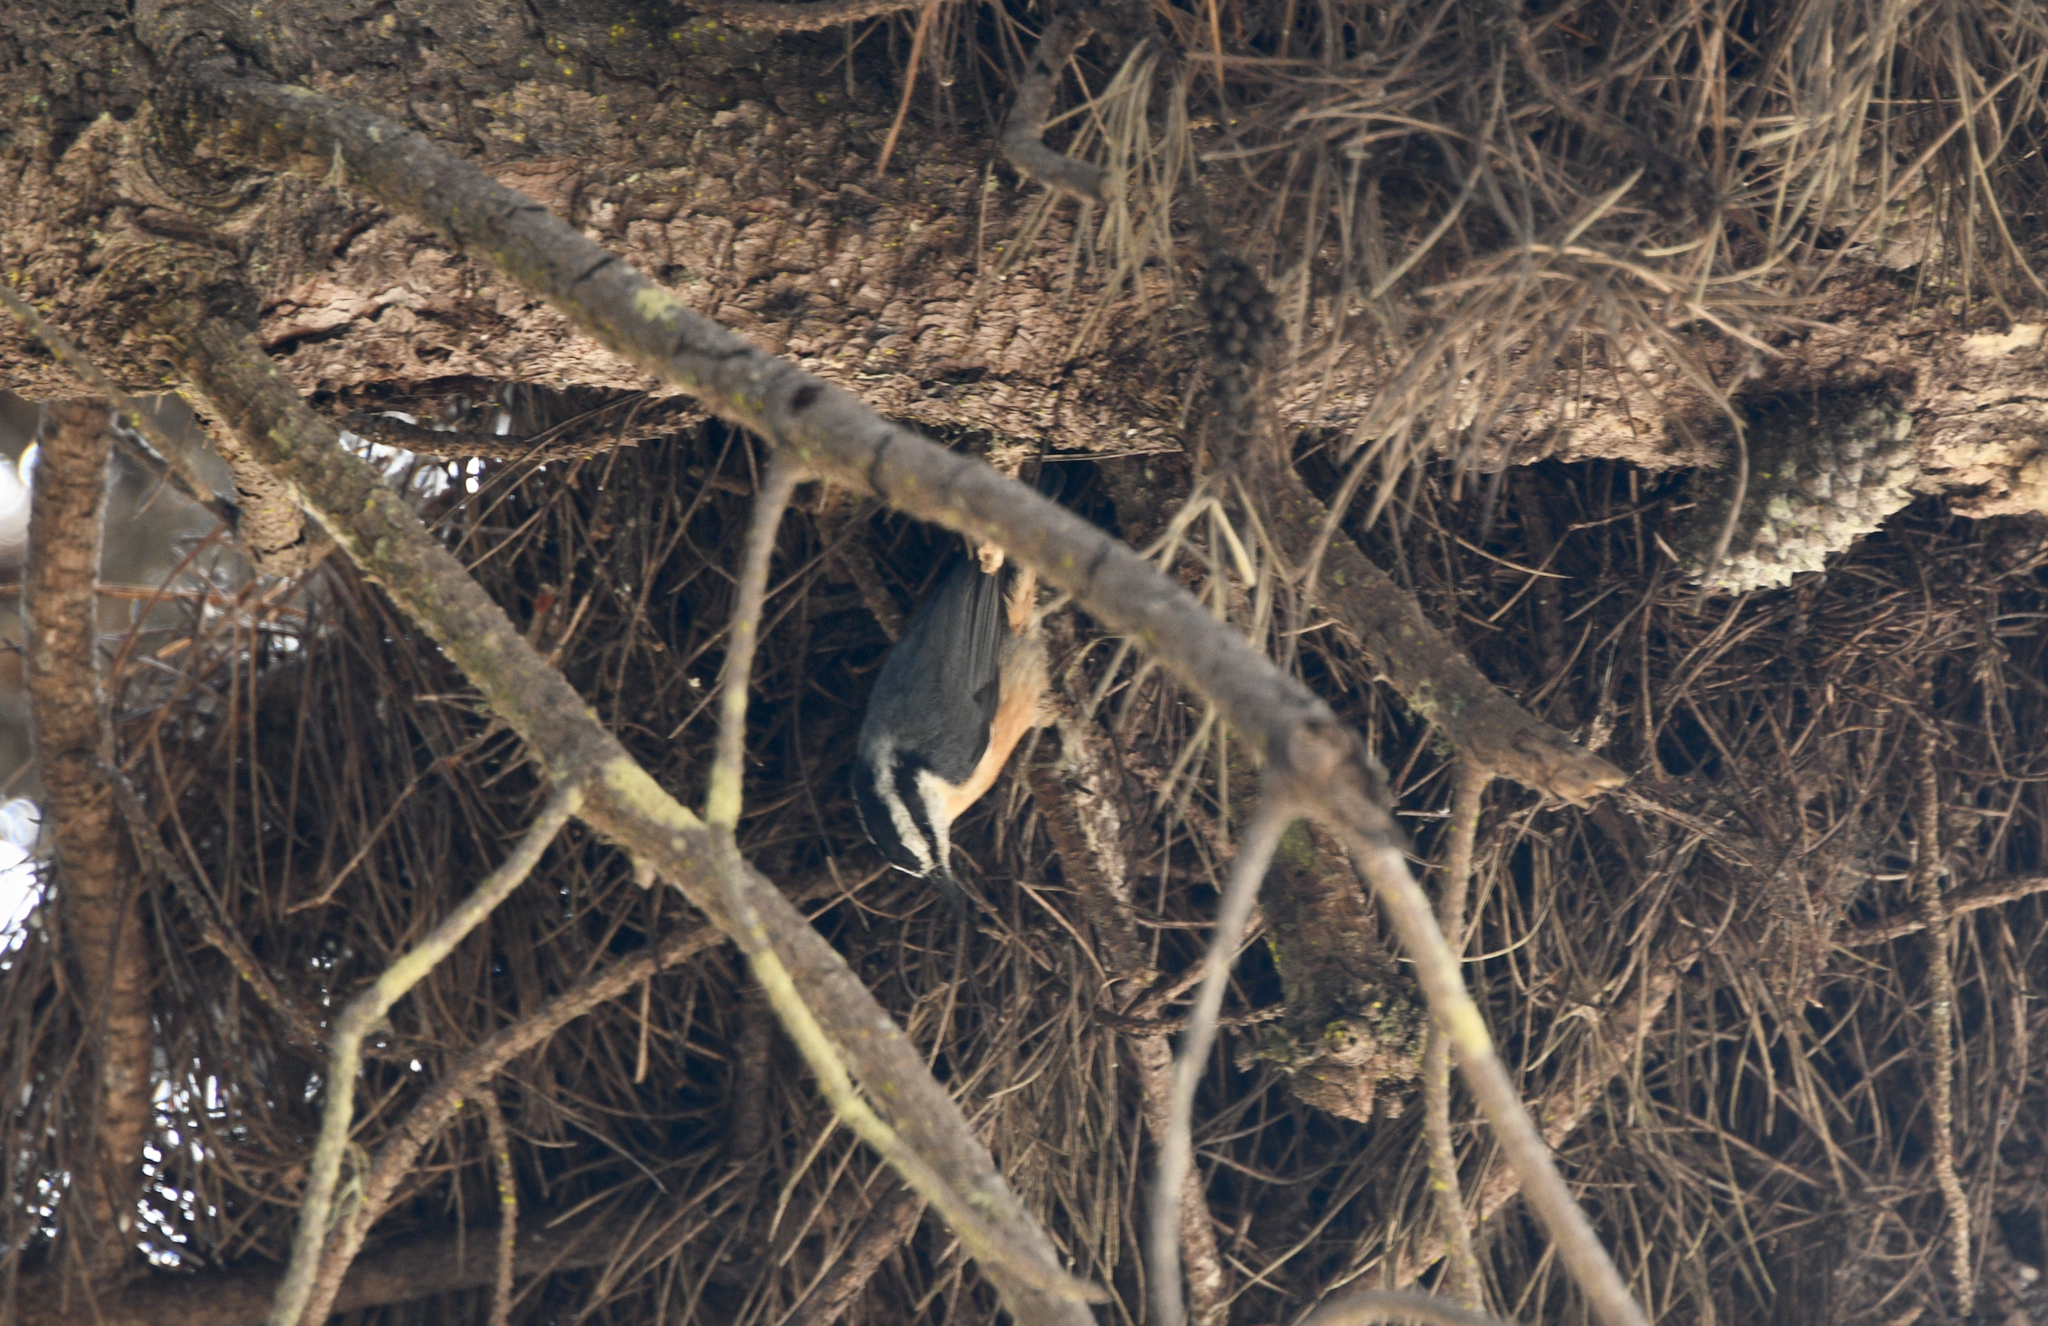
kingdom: Animalia
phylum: Chordata
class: Aves
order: Passeriformes
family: Sittidae
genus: Sitta
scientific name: Sitta canadensis
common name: Red-breasted nuthatch
